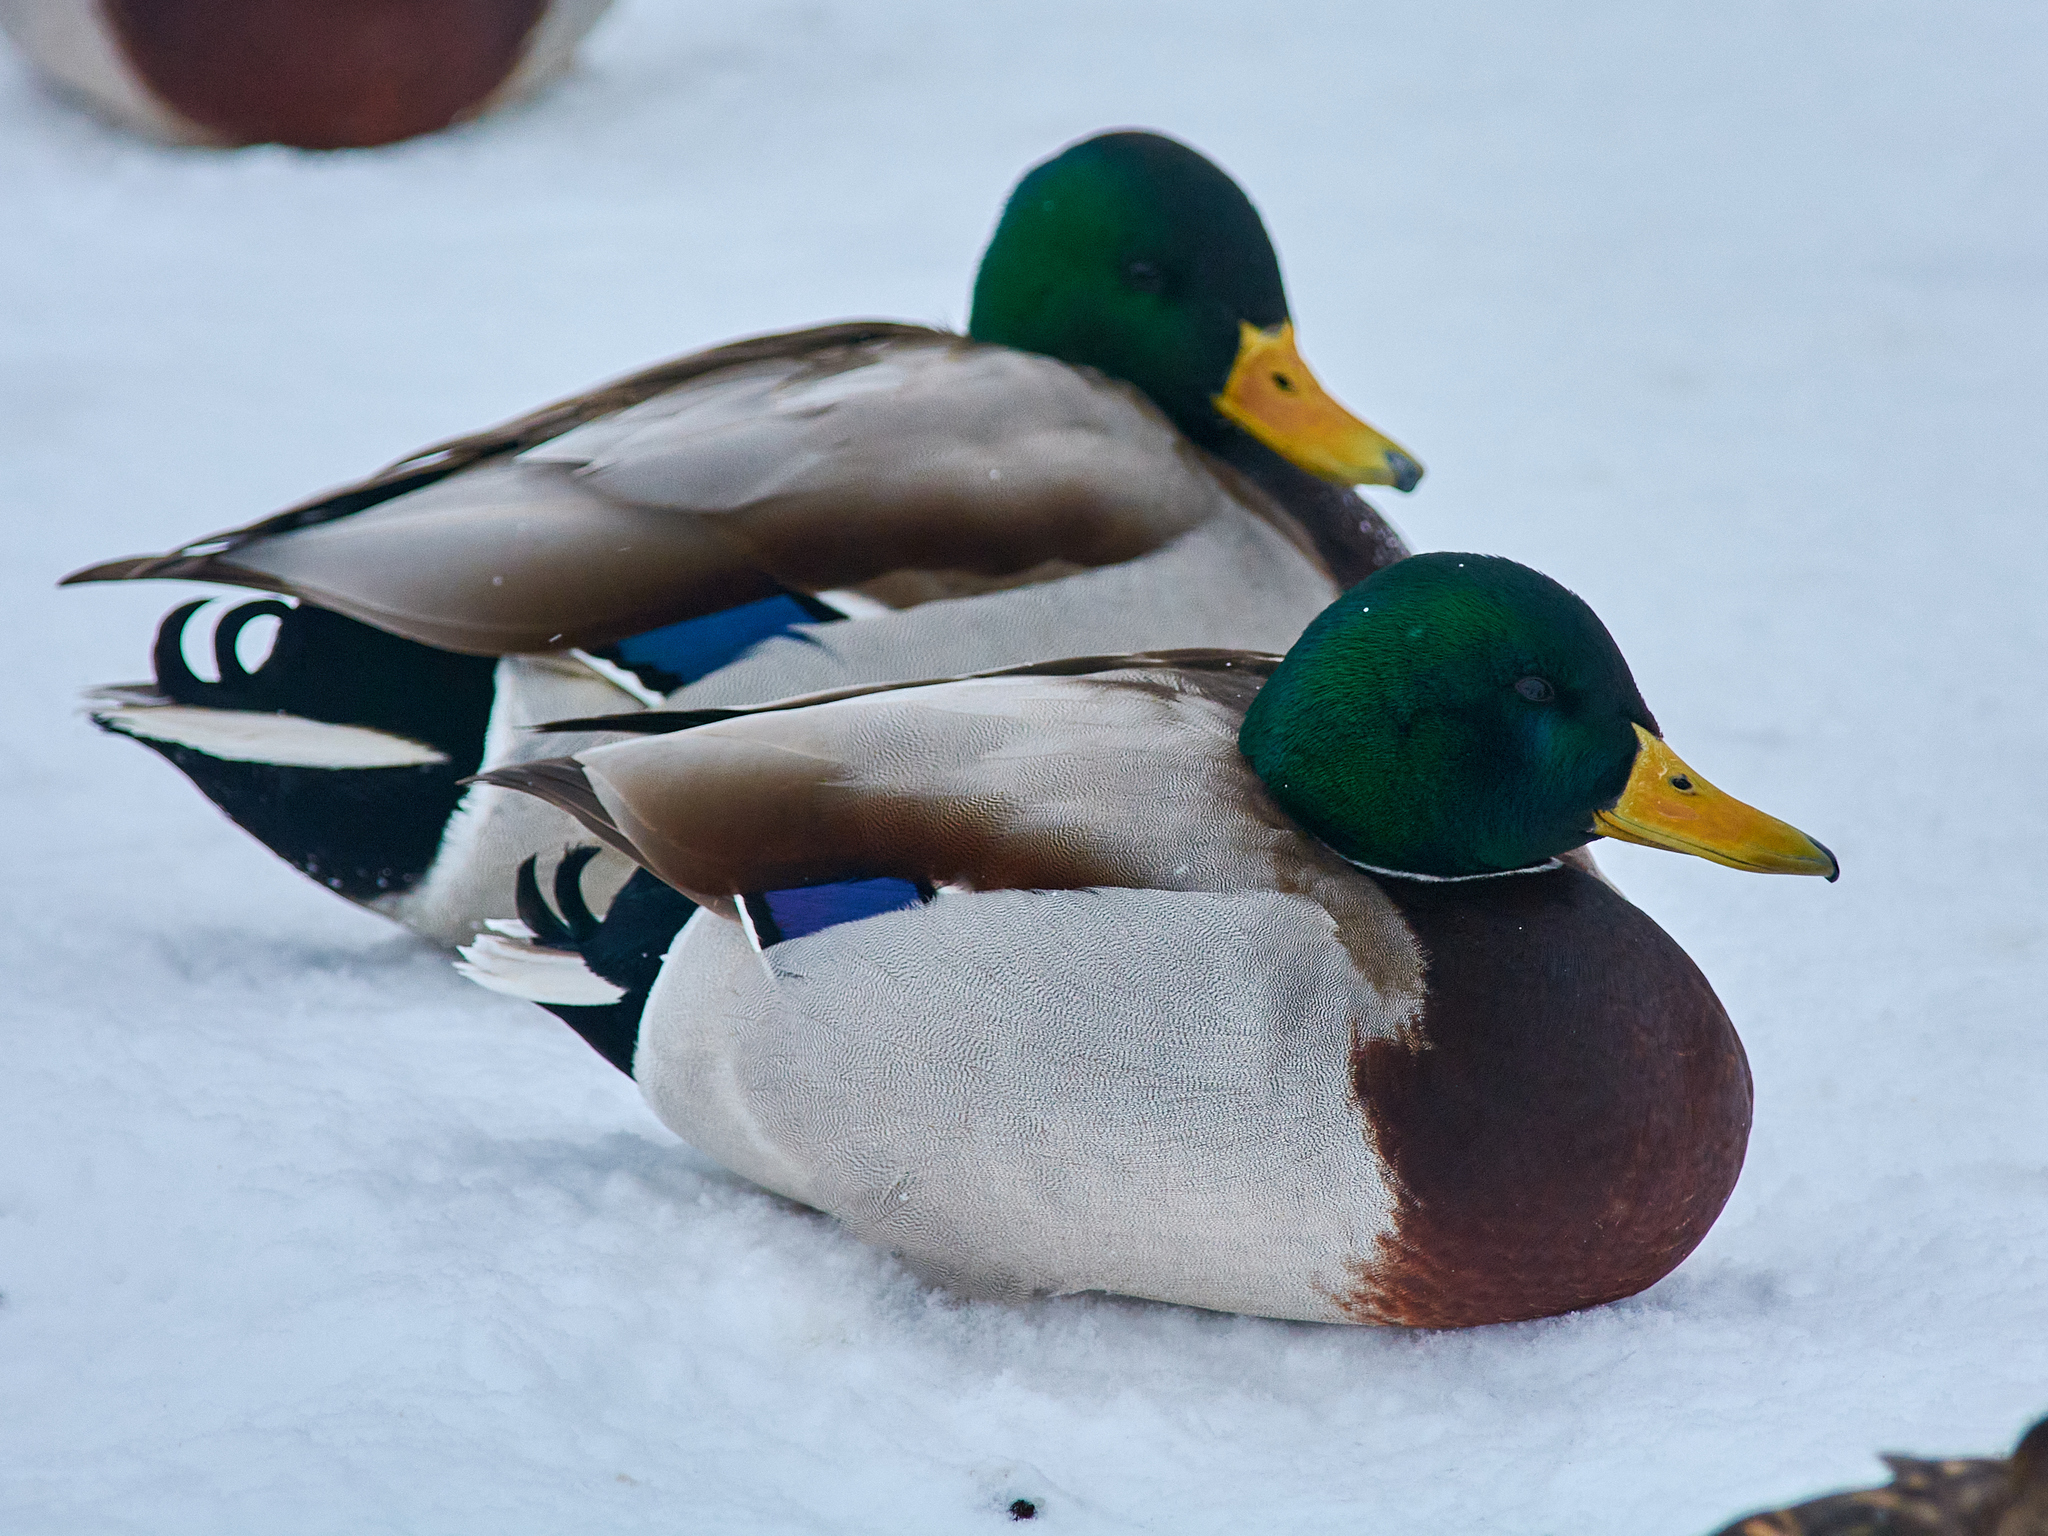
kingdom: Animalia
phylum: Chordata
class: Aves
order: Anseriformes
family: Anatidae
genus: Anas
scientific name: Anas platyrhynchos
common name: Mallard
